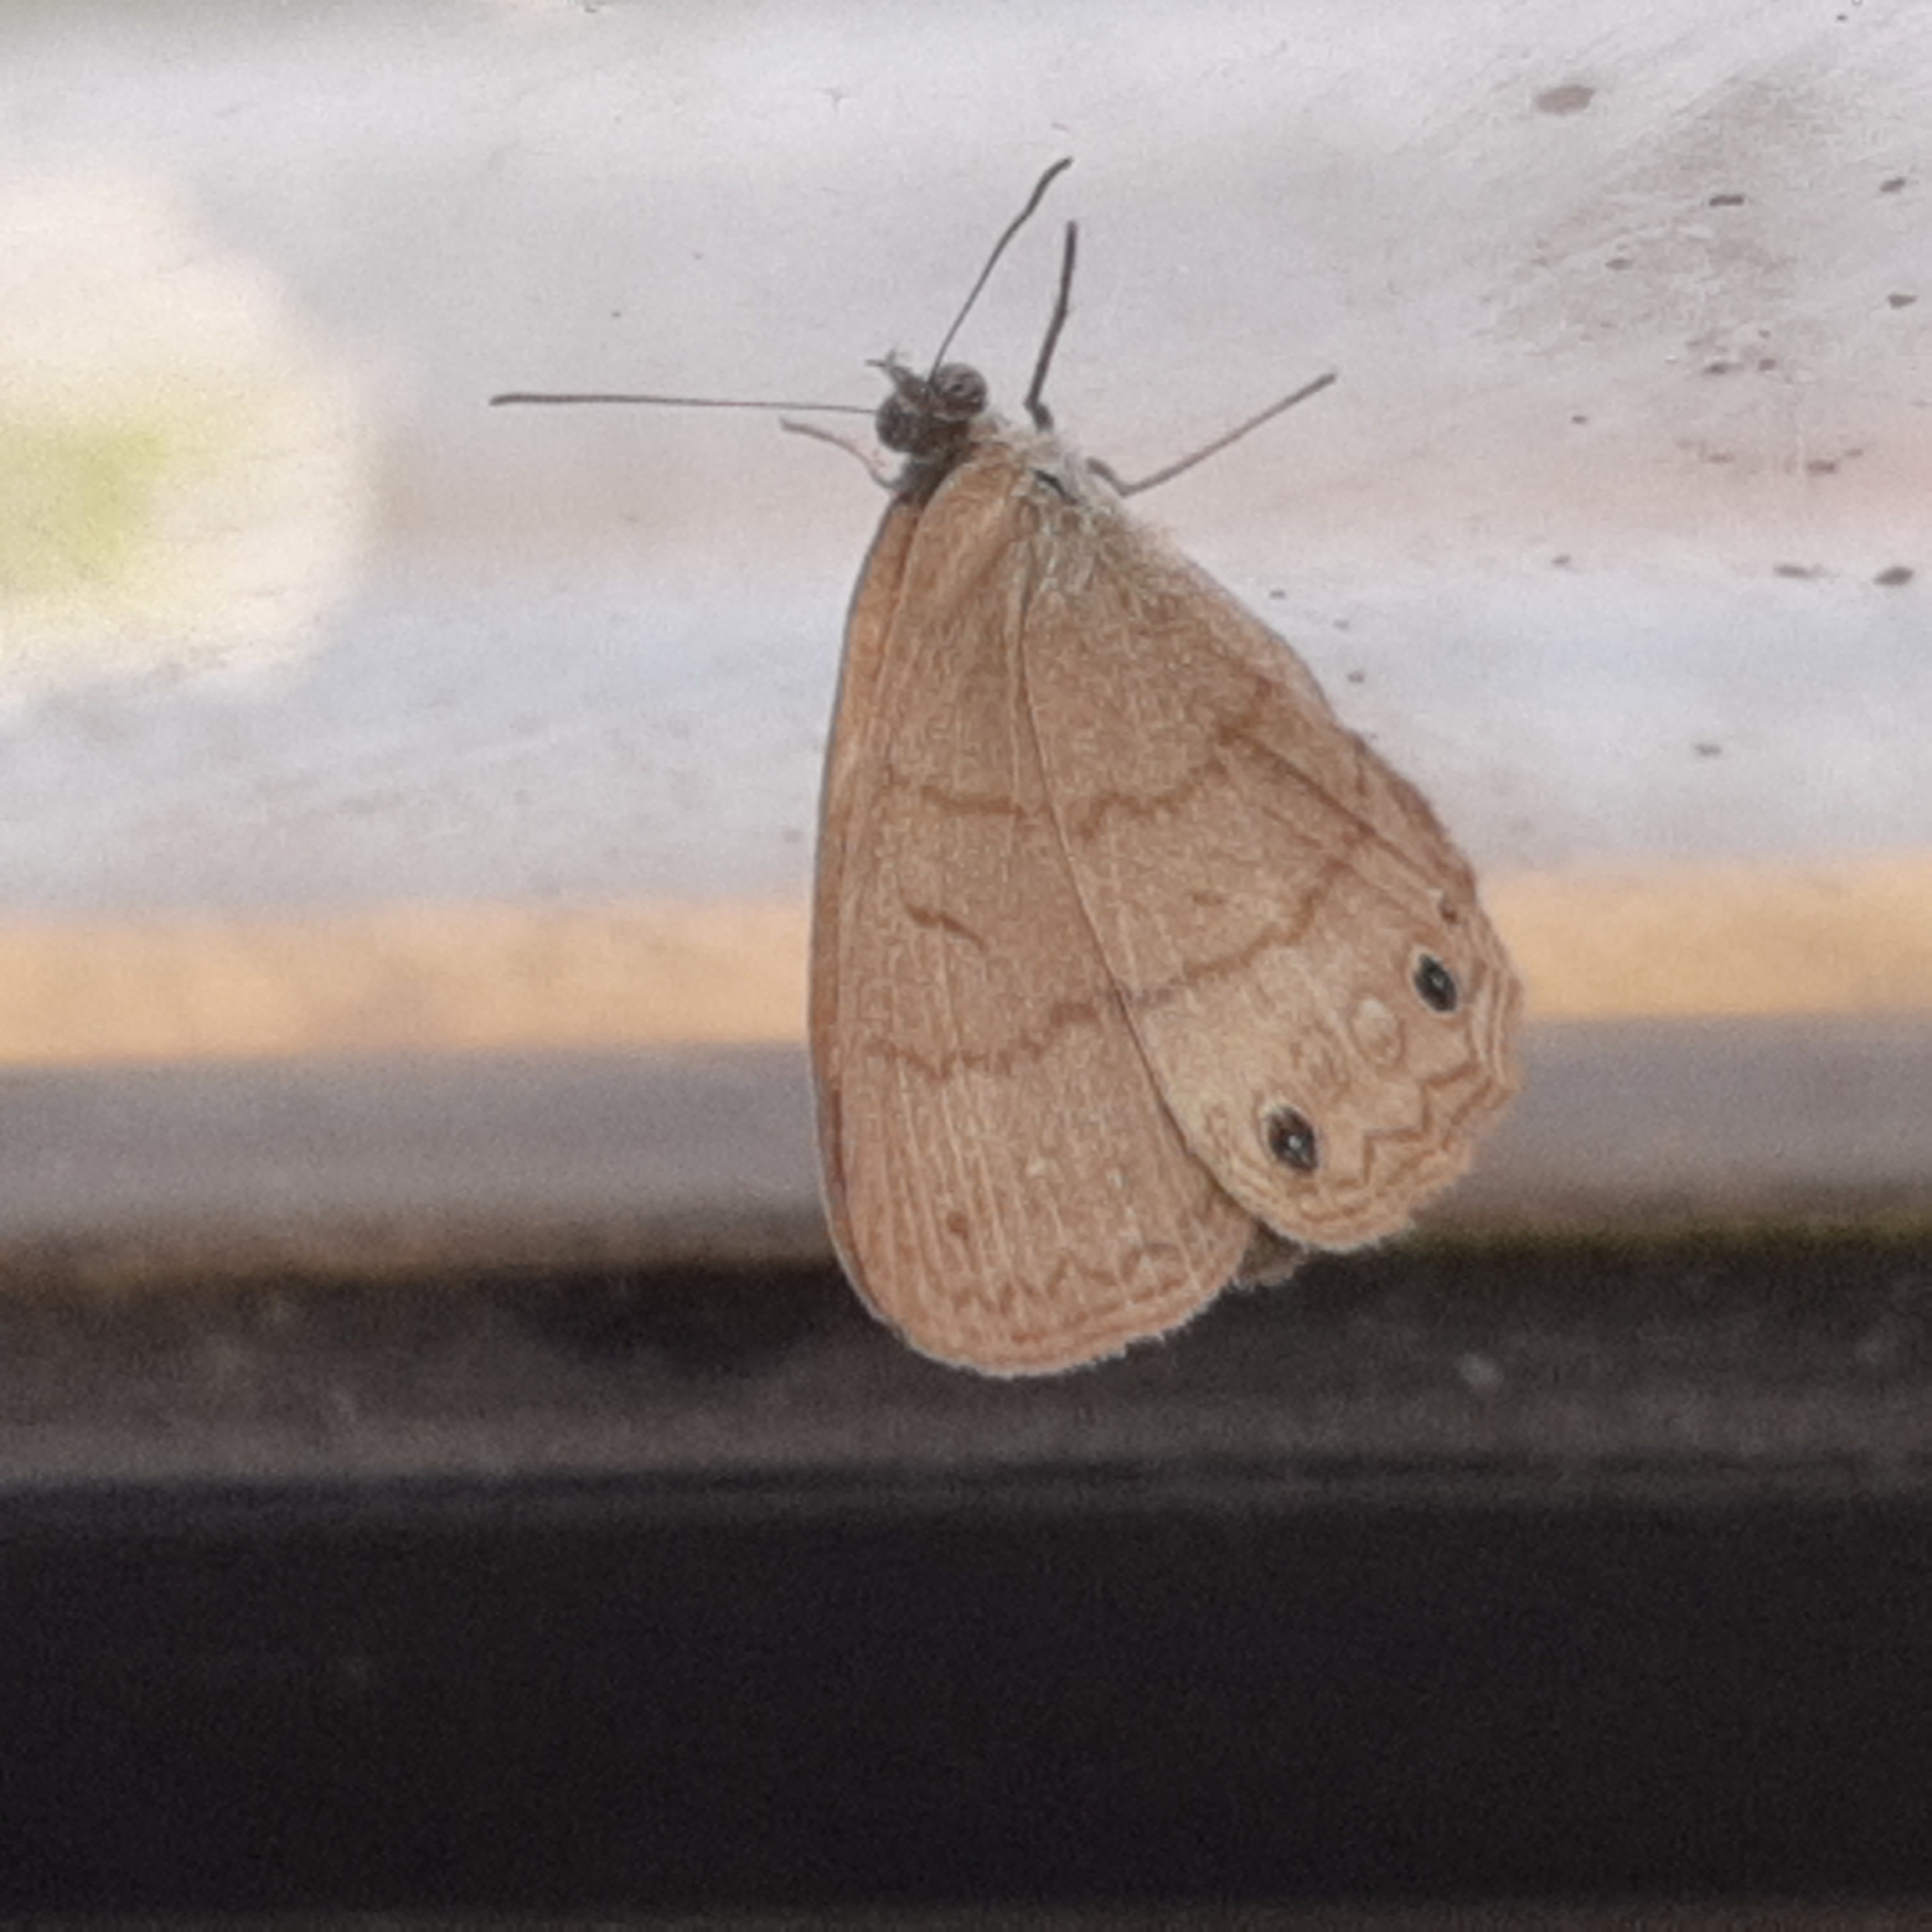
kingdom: Animalia
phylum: Arthropoda
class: Insecta
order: Lepidoptera
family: Nymphalidae
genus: Hermeuptychia
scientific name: Hermeuptychia hermes
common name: Hermes satyr
